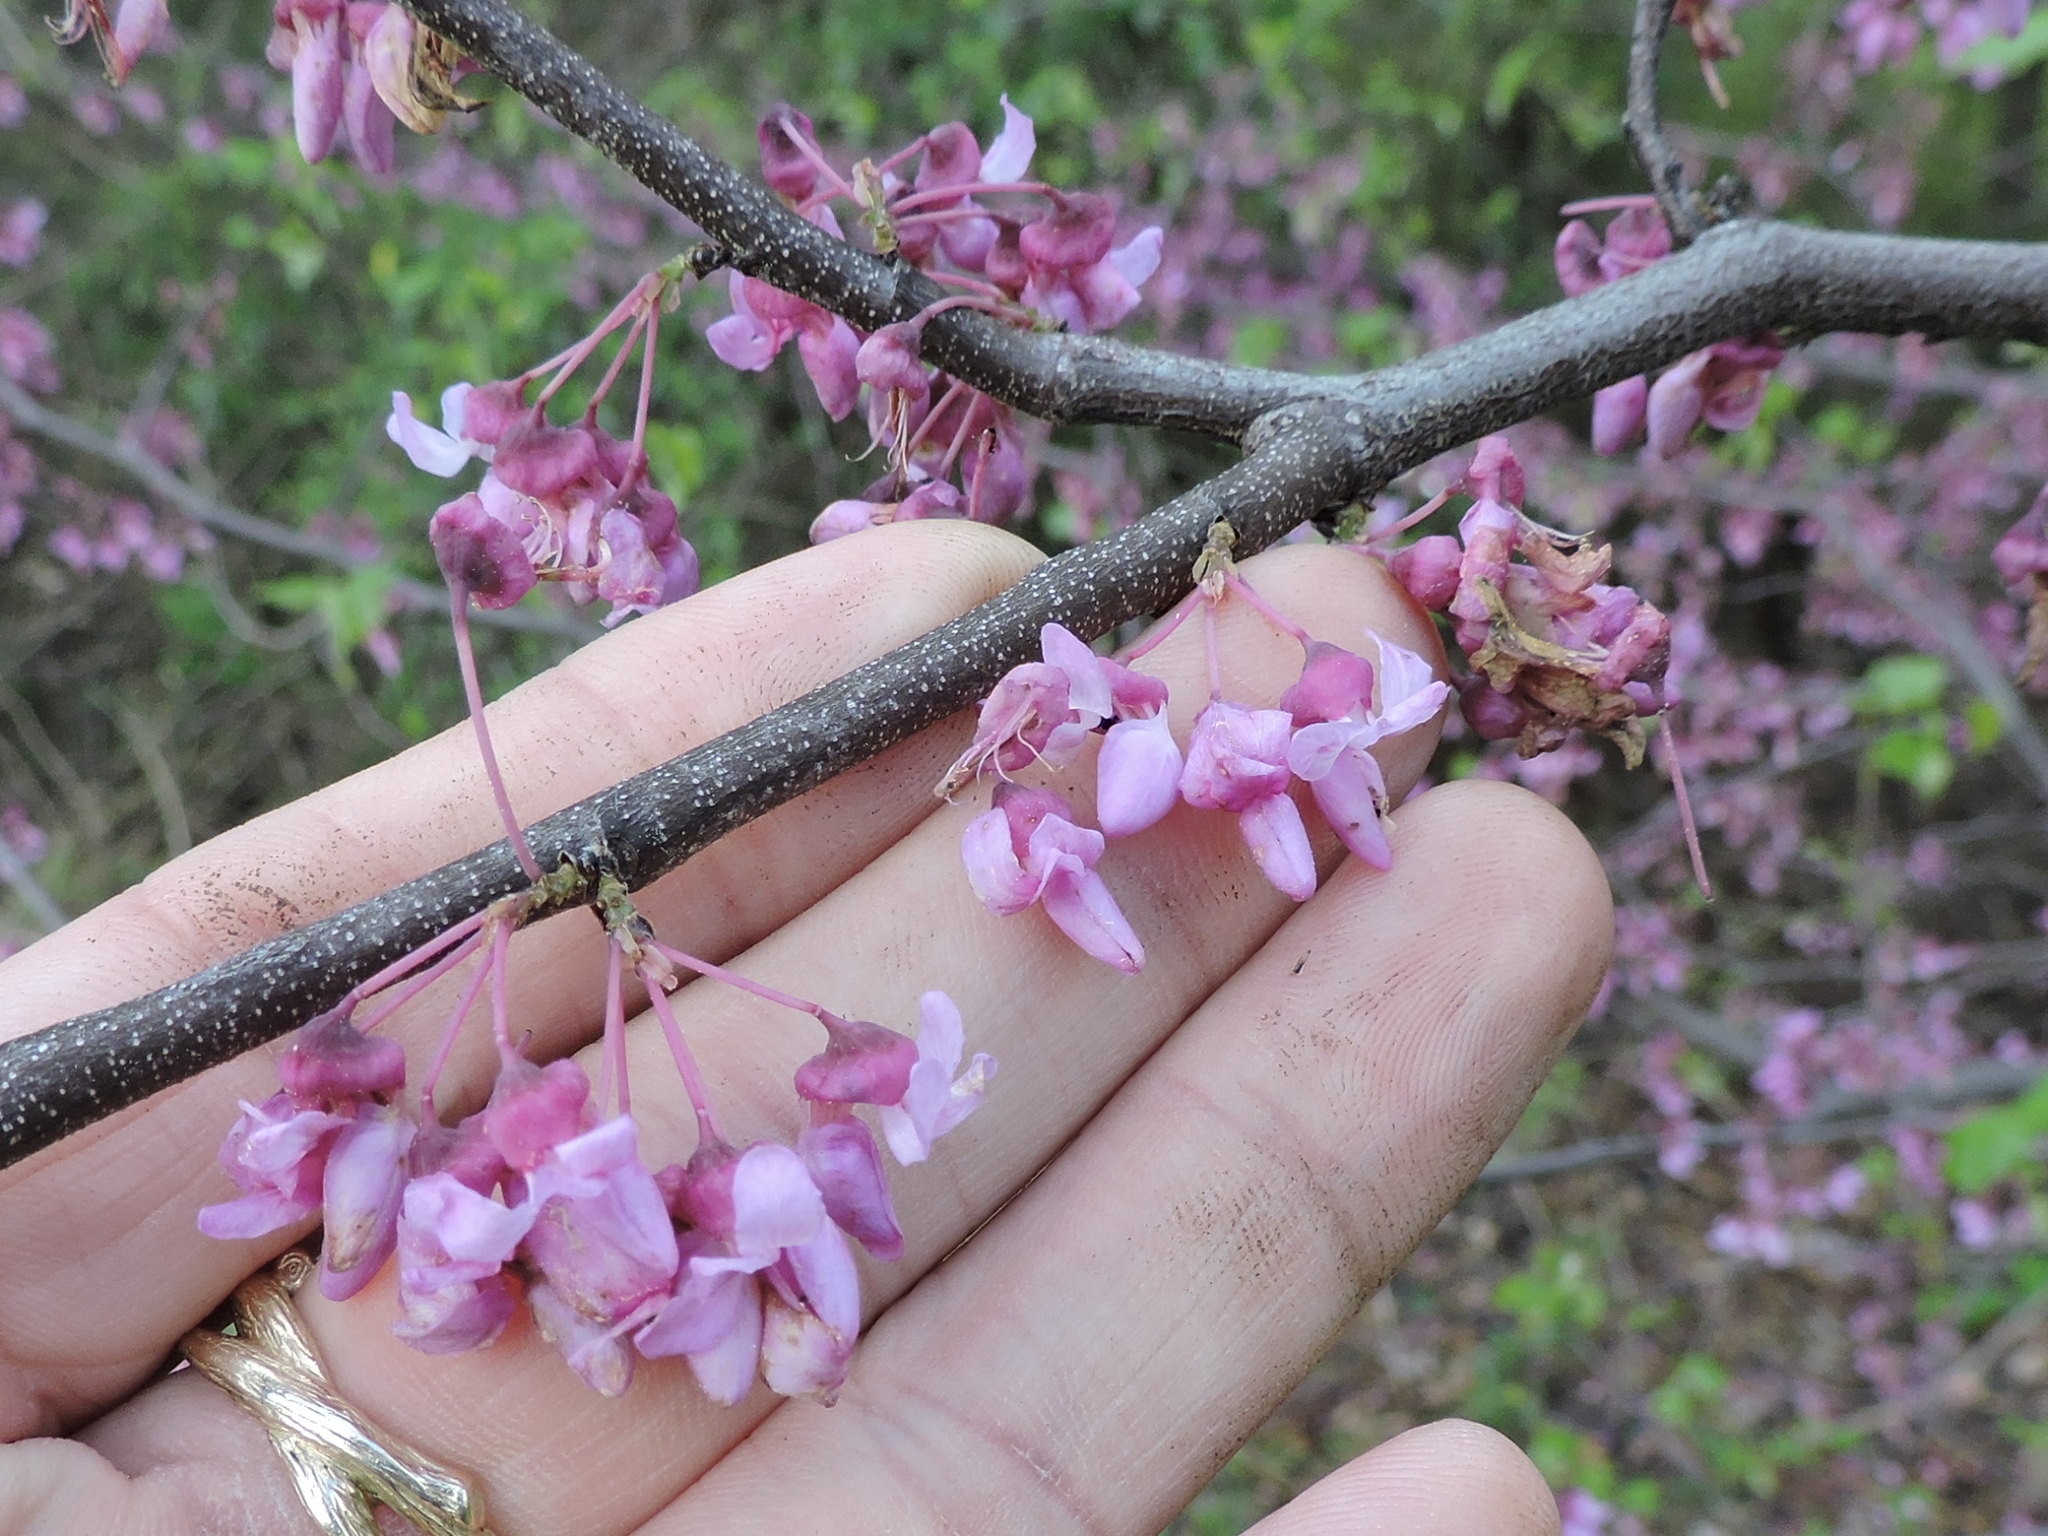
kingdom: Plantae
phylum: Tracheophyta
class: Magnoliopsida
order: Fabales
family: Fabaceae
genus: Cercis
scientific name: Cercis canadensis
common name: Eastern redbud
